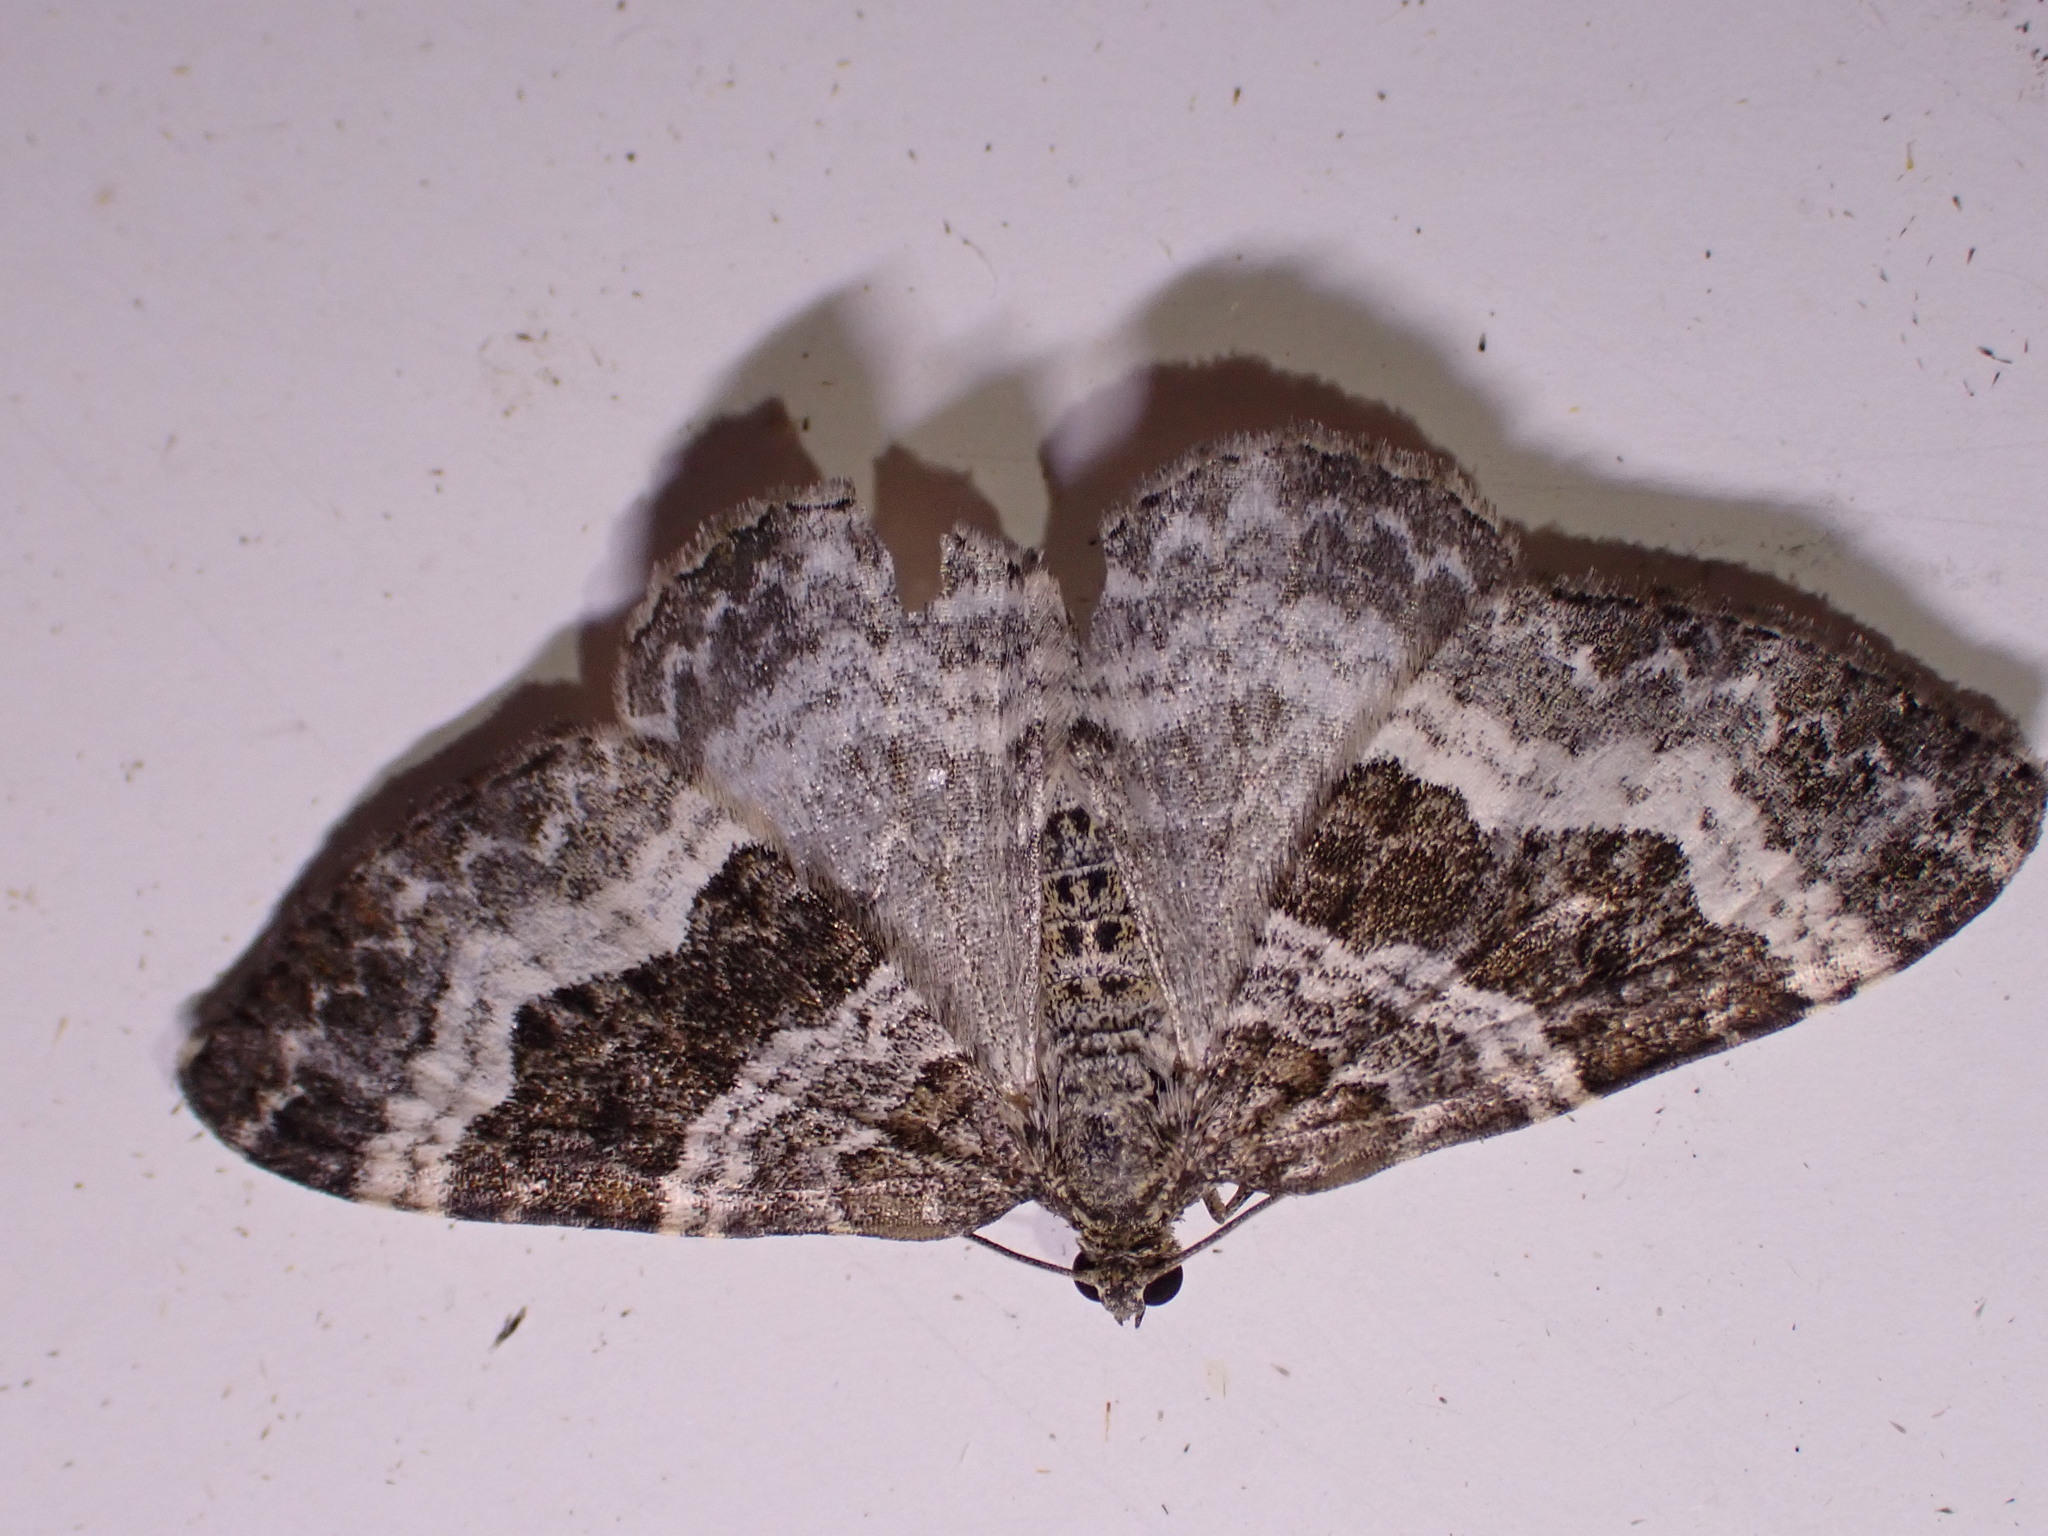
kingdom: Animalia
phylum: Arthropoda
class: Insecta
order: Lepidoptera
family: Geometridae
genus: Epirrhoe
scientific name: Epirrhoe alternata
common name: Common carpet
